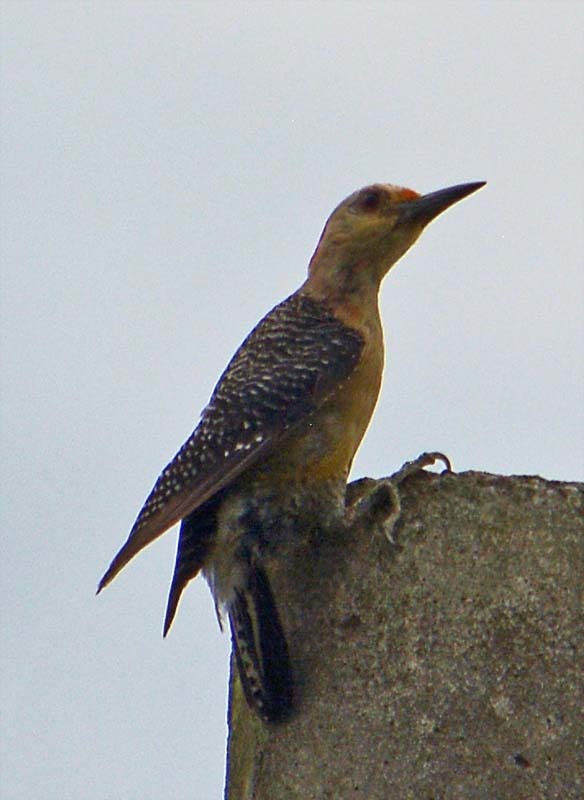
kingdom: Animalia
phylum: Chordata
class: Aves
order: Piciformes
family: Picidae
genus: Melanerpes
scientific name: Melanerpes aurifrons
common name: Golden-fronted woodpecker
